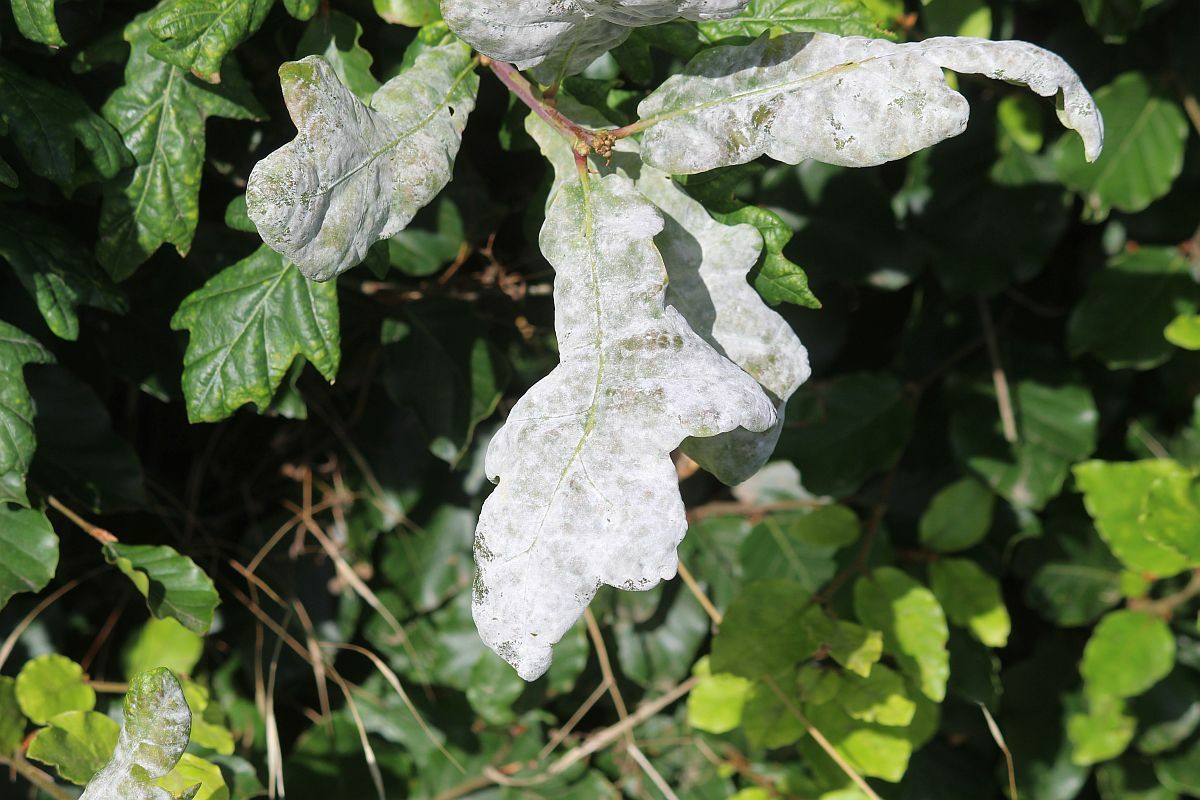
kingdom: Fungi
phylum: Ascomycota
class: Leotiomycetes
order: Helotiales
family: Erysiphaceae
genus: Erysiphe
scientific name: Erysiphe alphitoides
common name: Oak mildew
